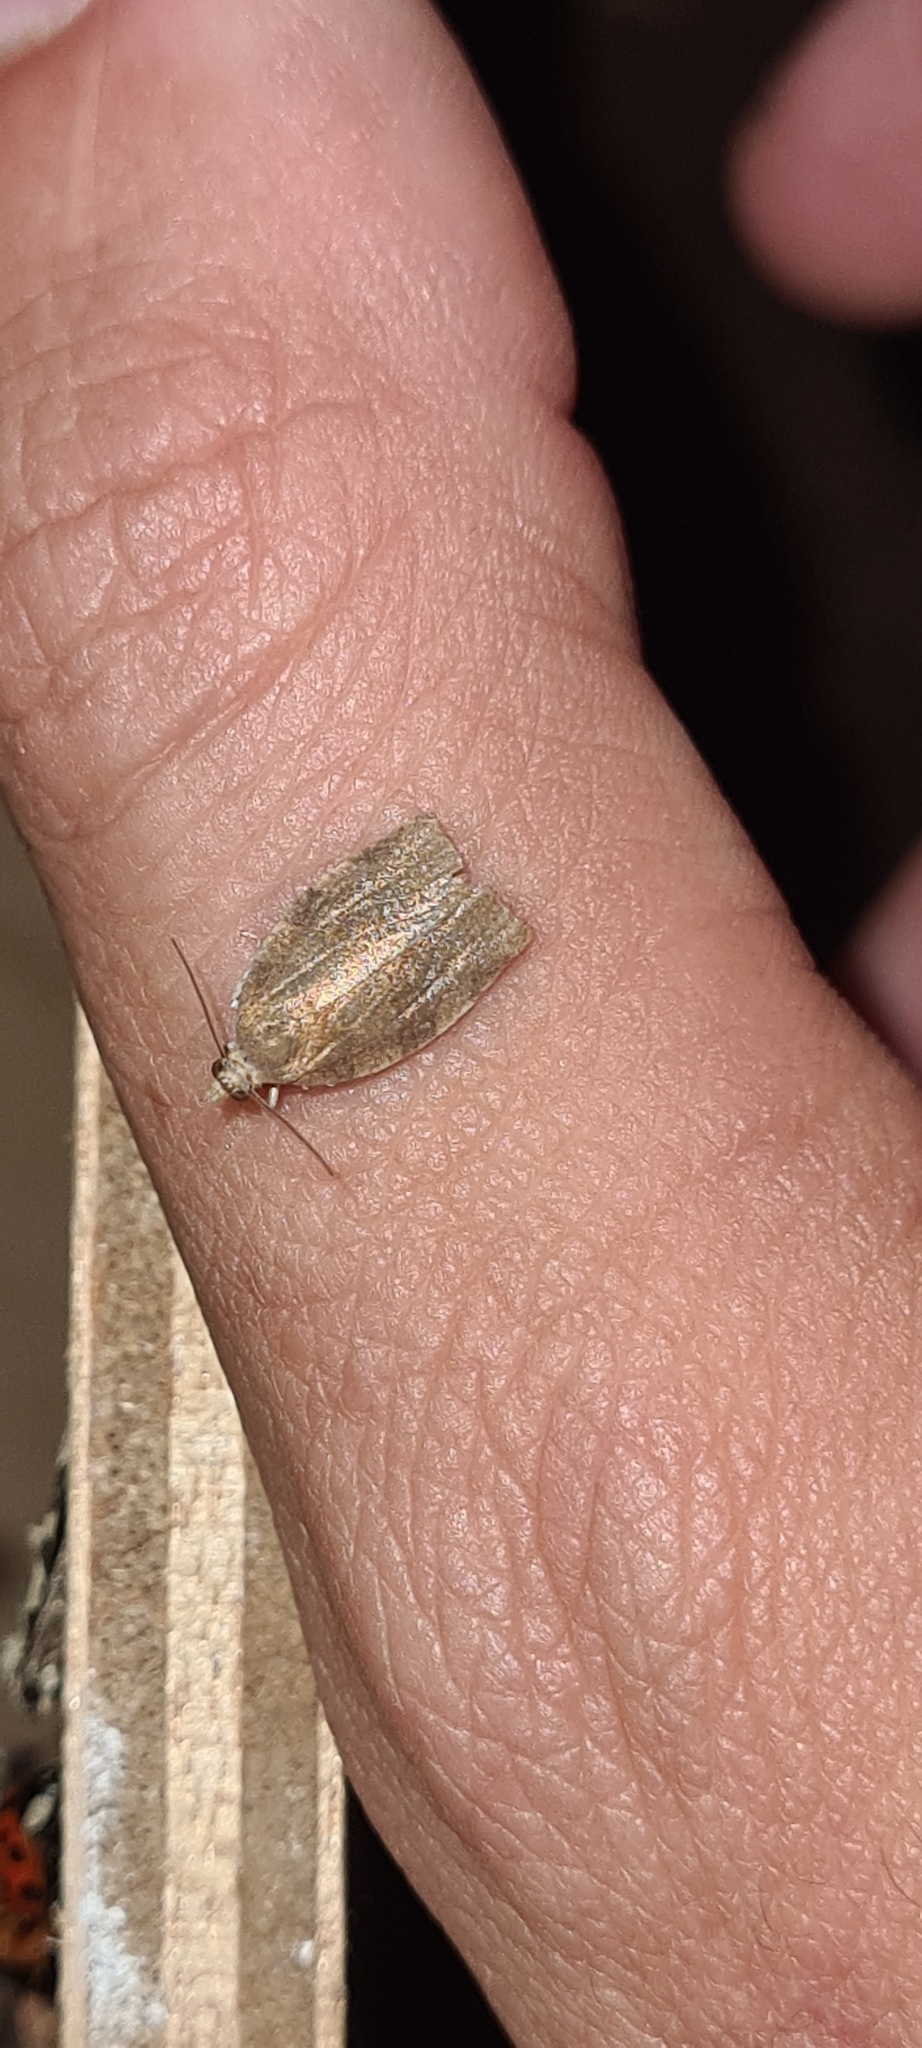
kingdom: Animalia
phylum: Arthropoda
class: Insecta
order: Lepidoptera
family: Tortricidae
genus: Pandemis
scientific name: Pandemis heparana
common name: Dark fruit-tree tortrix
